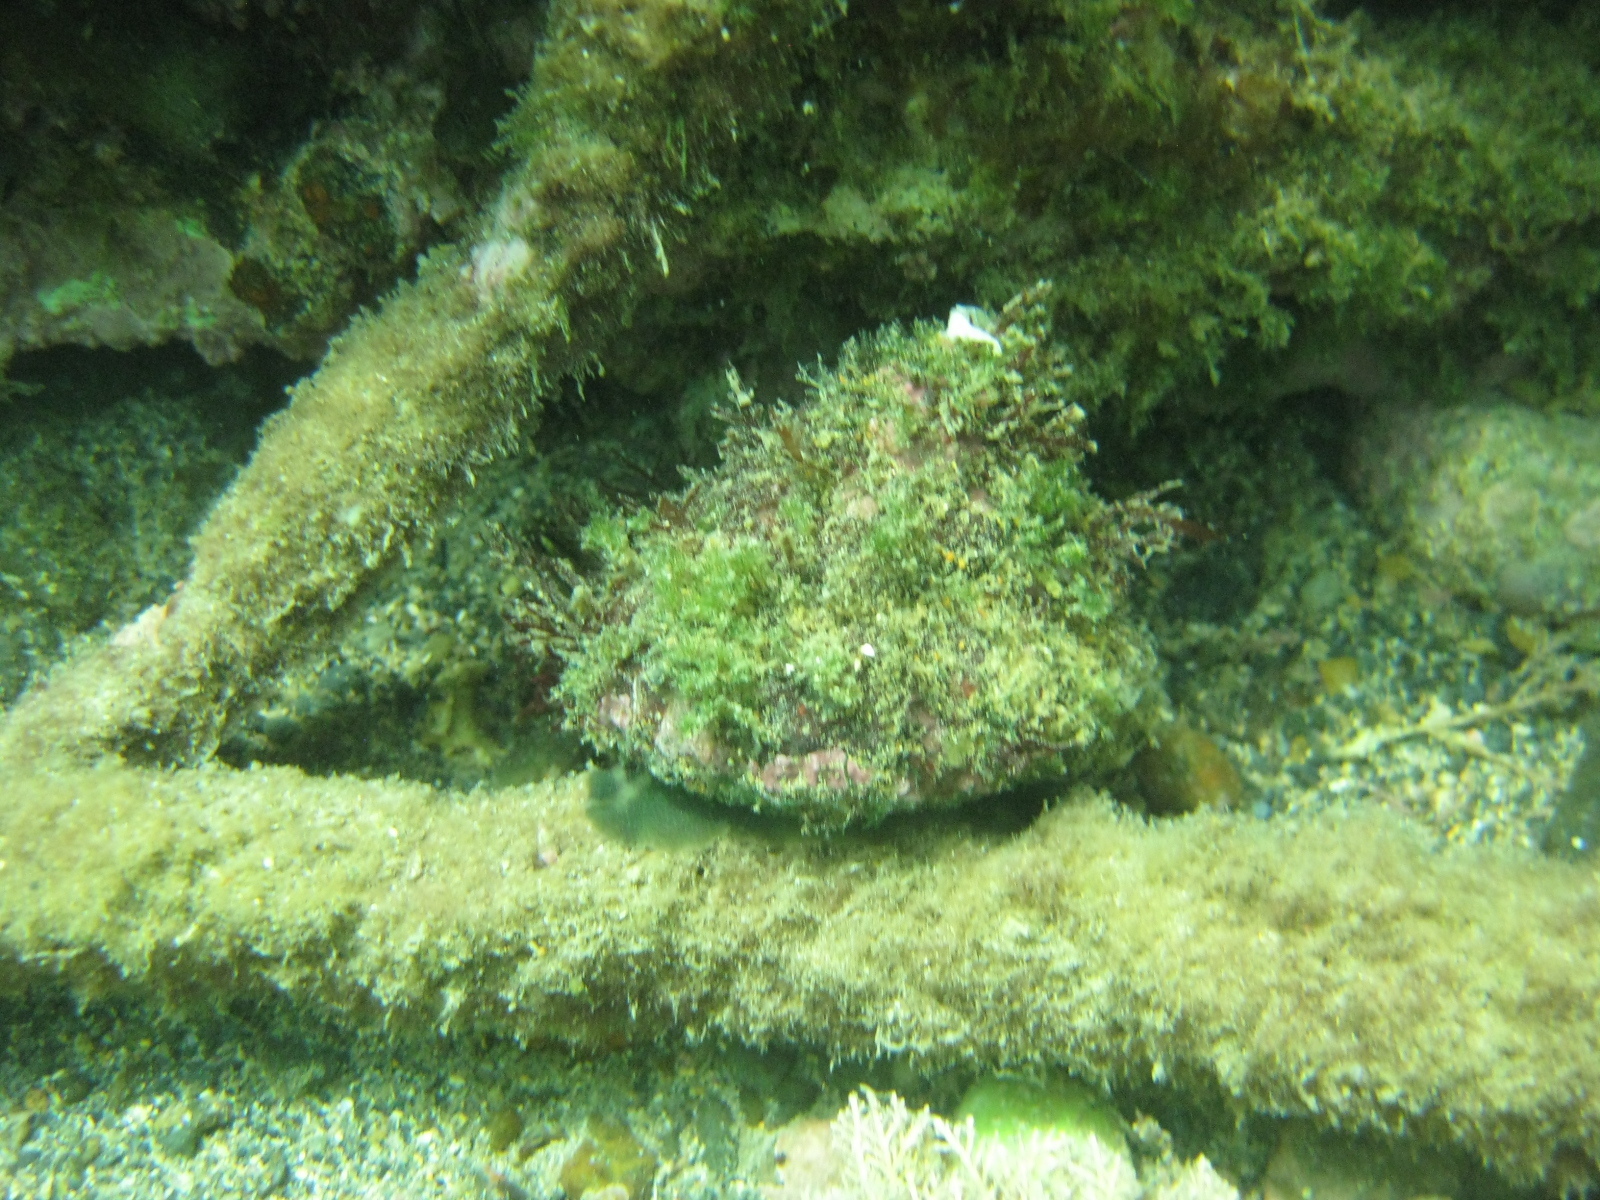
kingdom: Animalia
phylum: Mollusca
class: Gastropoda
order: Trochida
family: Turbinidae
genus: Cookia
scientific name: Cookia sulcata
